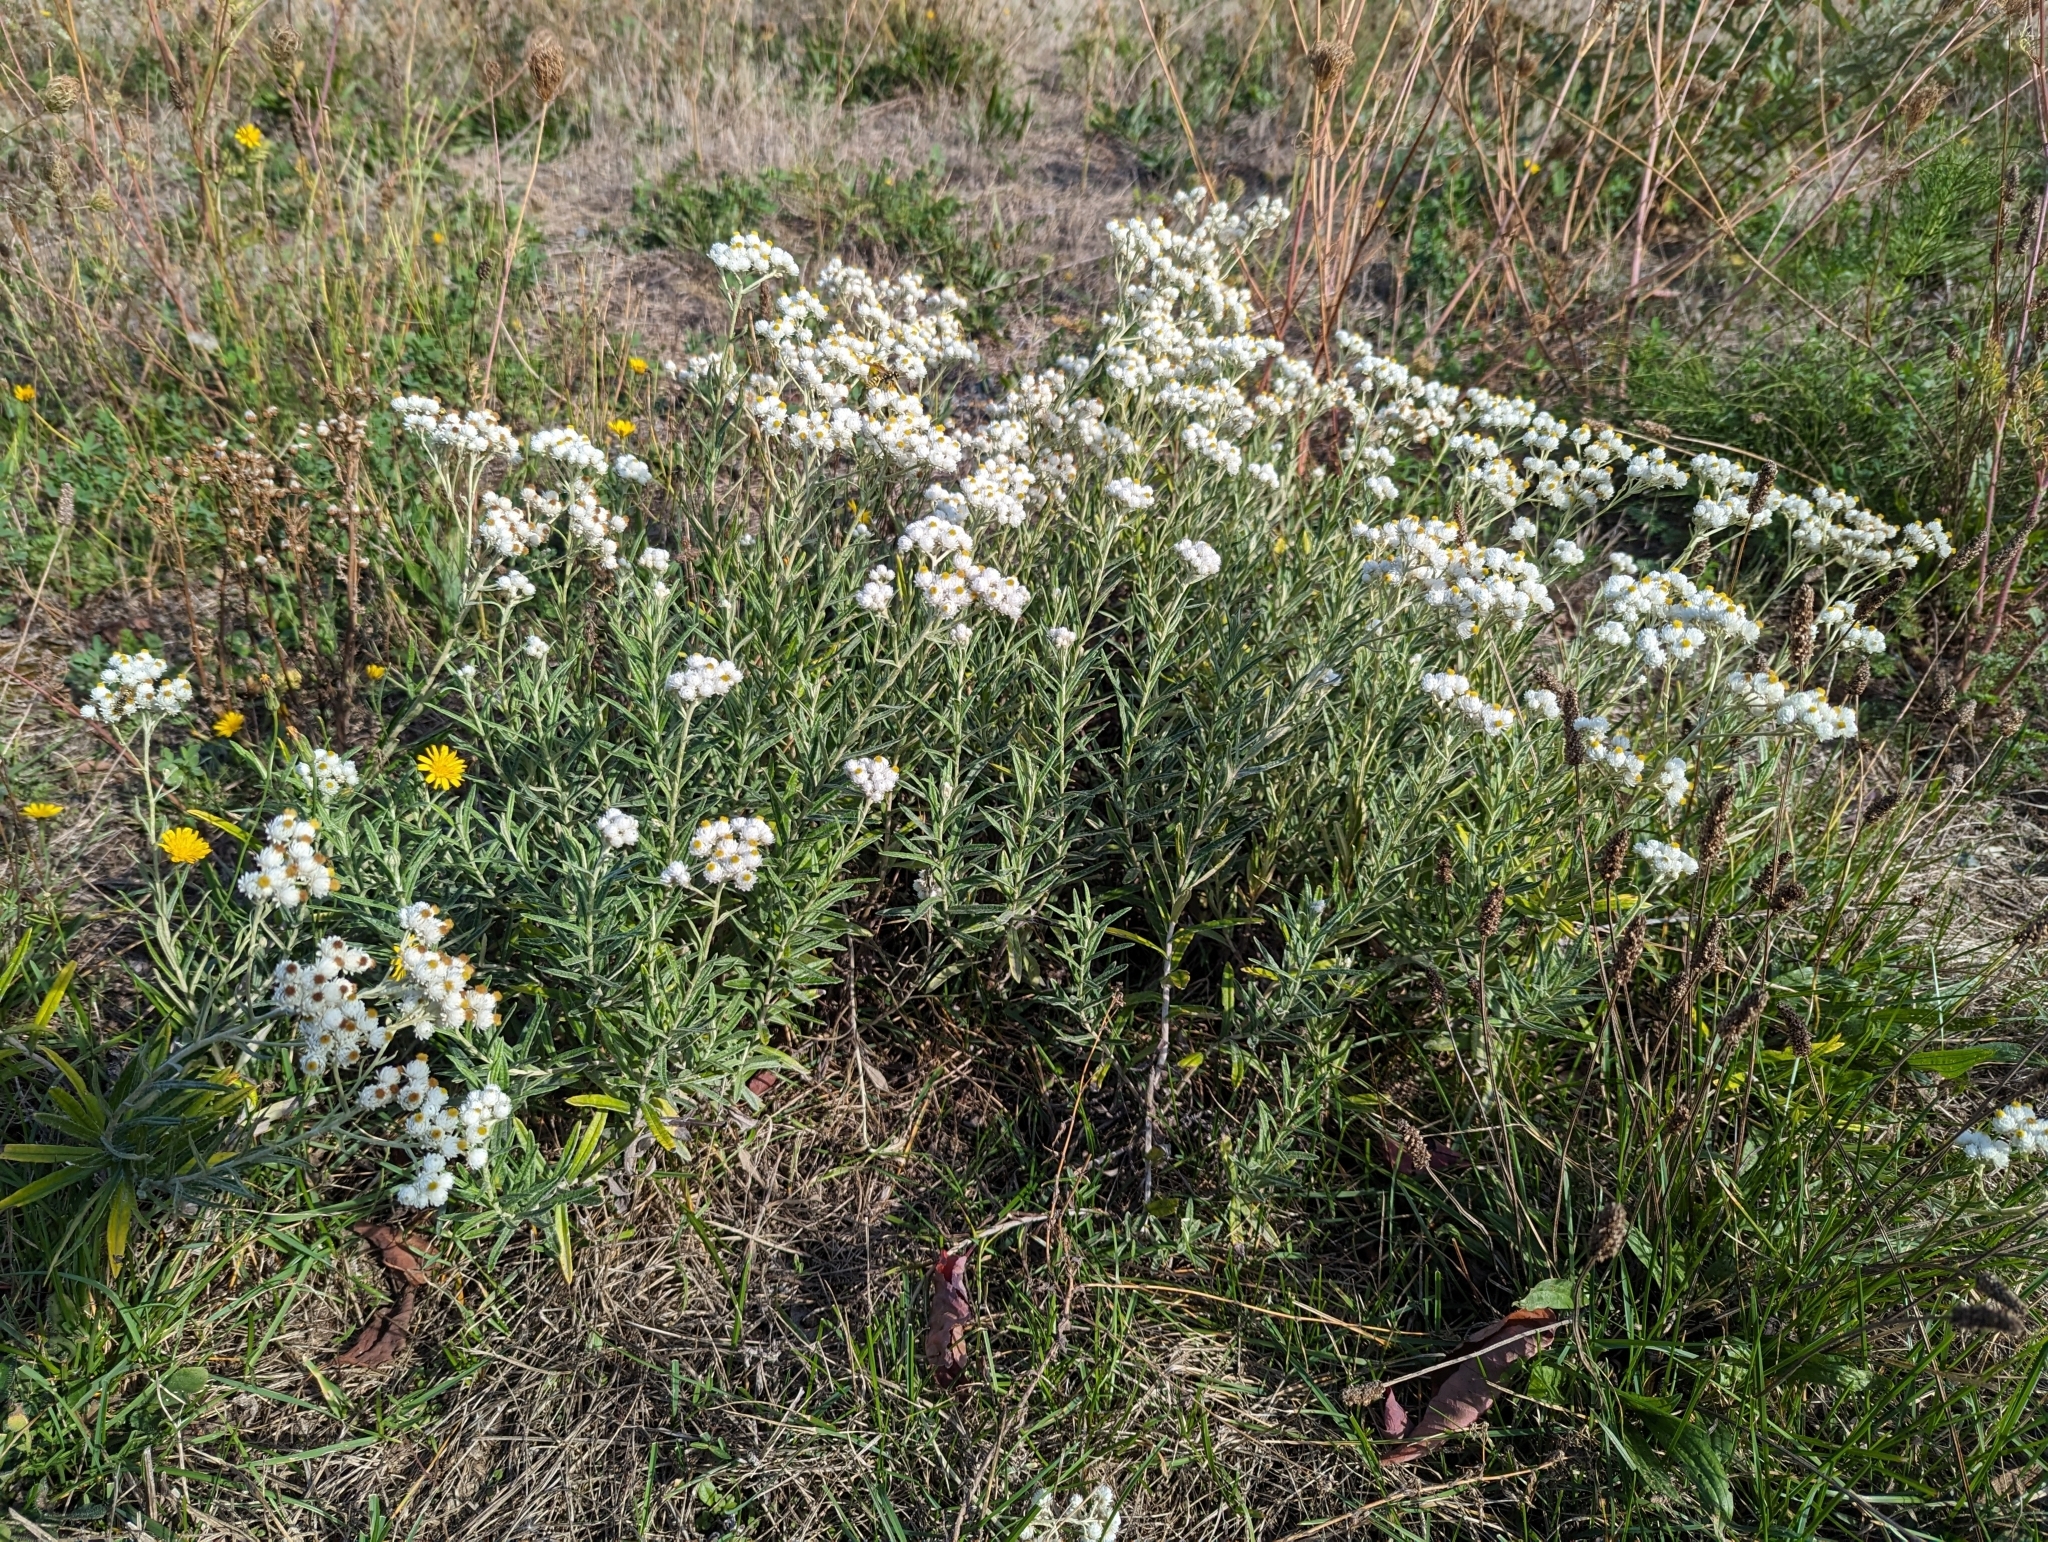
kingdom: Plantae
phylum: Tracheophyta
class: Magnoliopsida
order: Asterales
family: Asteraceae
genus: Anaphalis
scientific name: Anaphalis margaritacea
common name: Pearly everlasting
